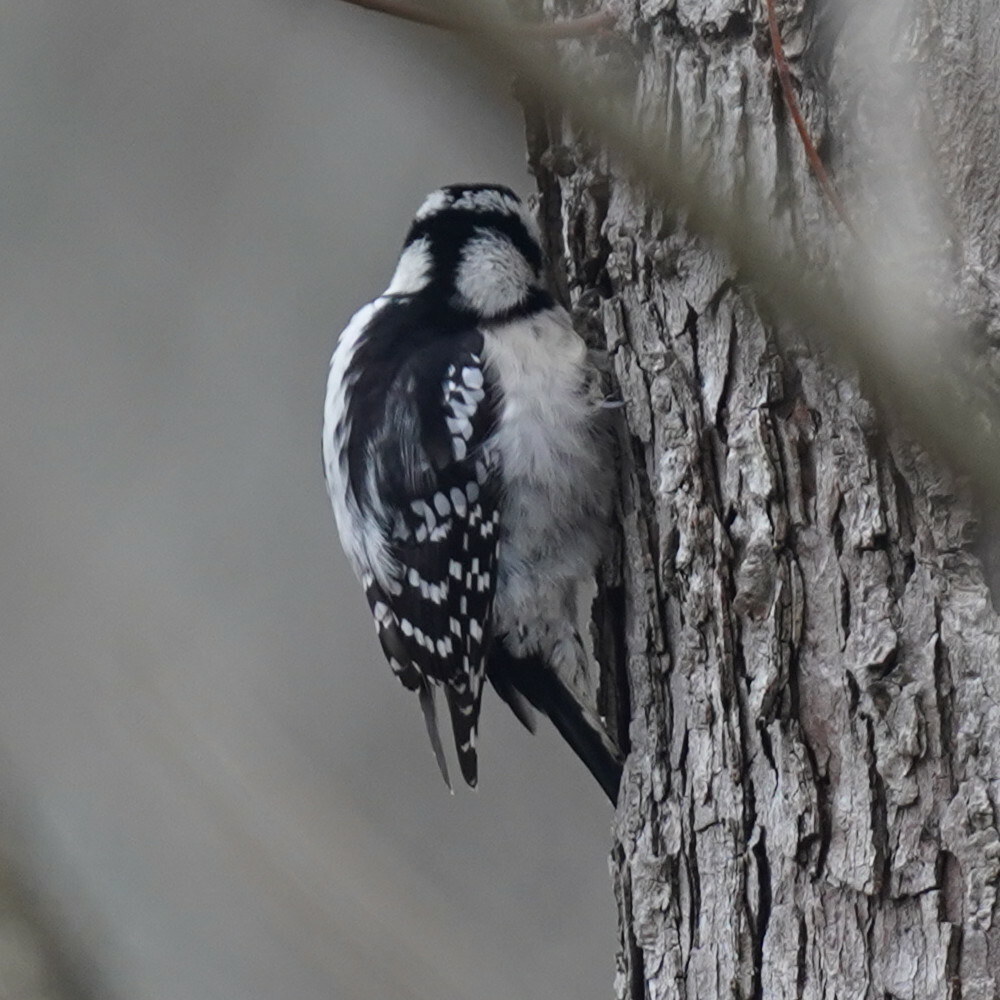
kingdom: Animalia
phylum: Chordata
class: Aves
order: Piciformes
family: Picidae
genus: Dryobates
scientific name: Dryobates pubescens
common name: Downy woodpecker
